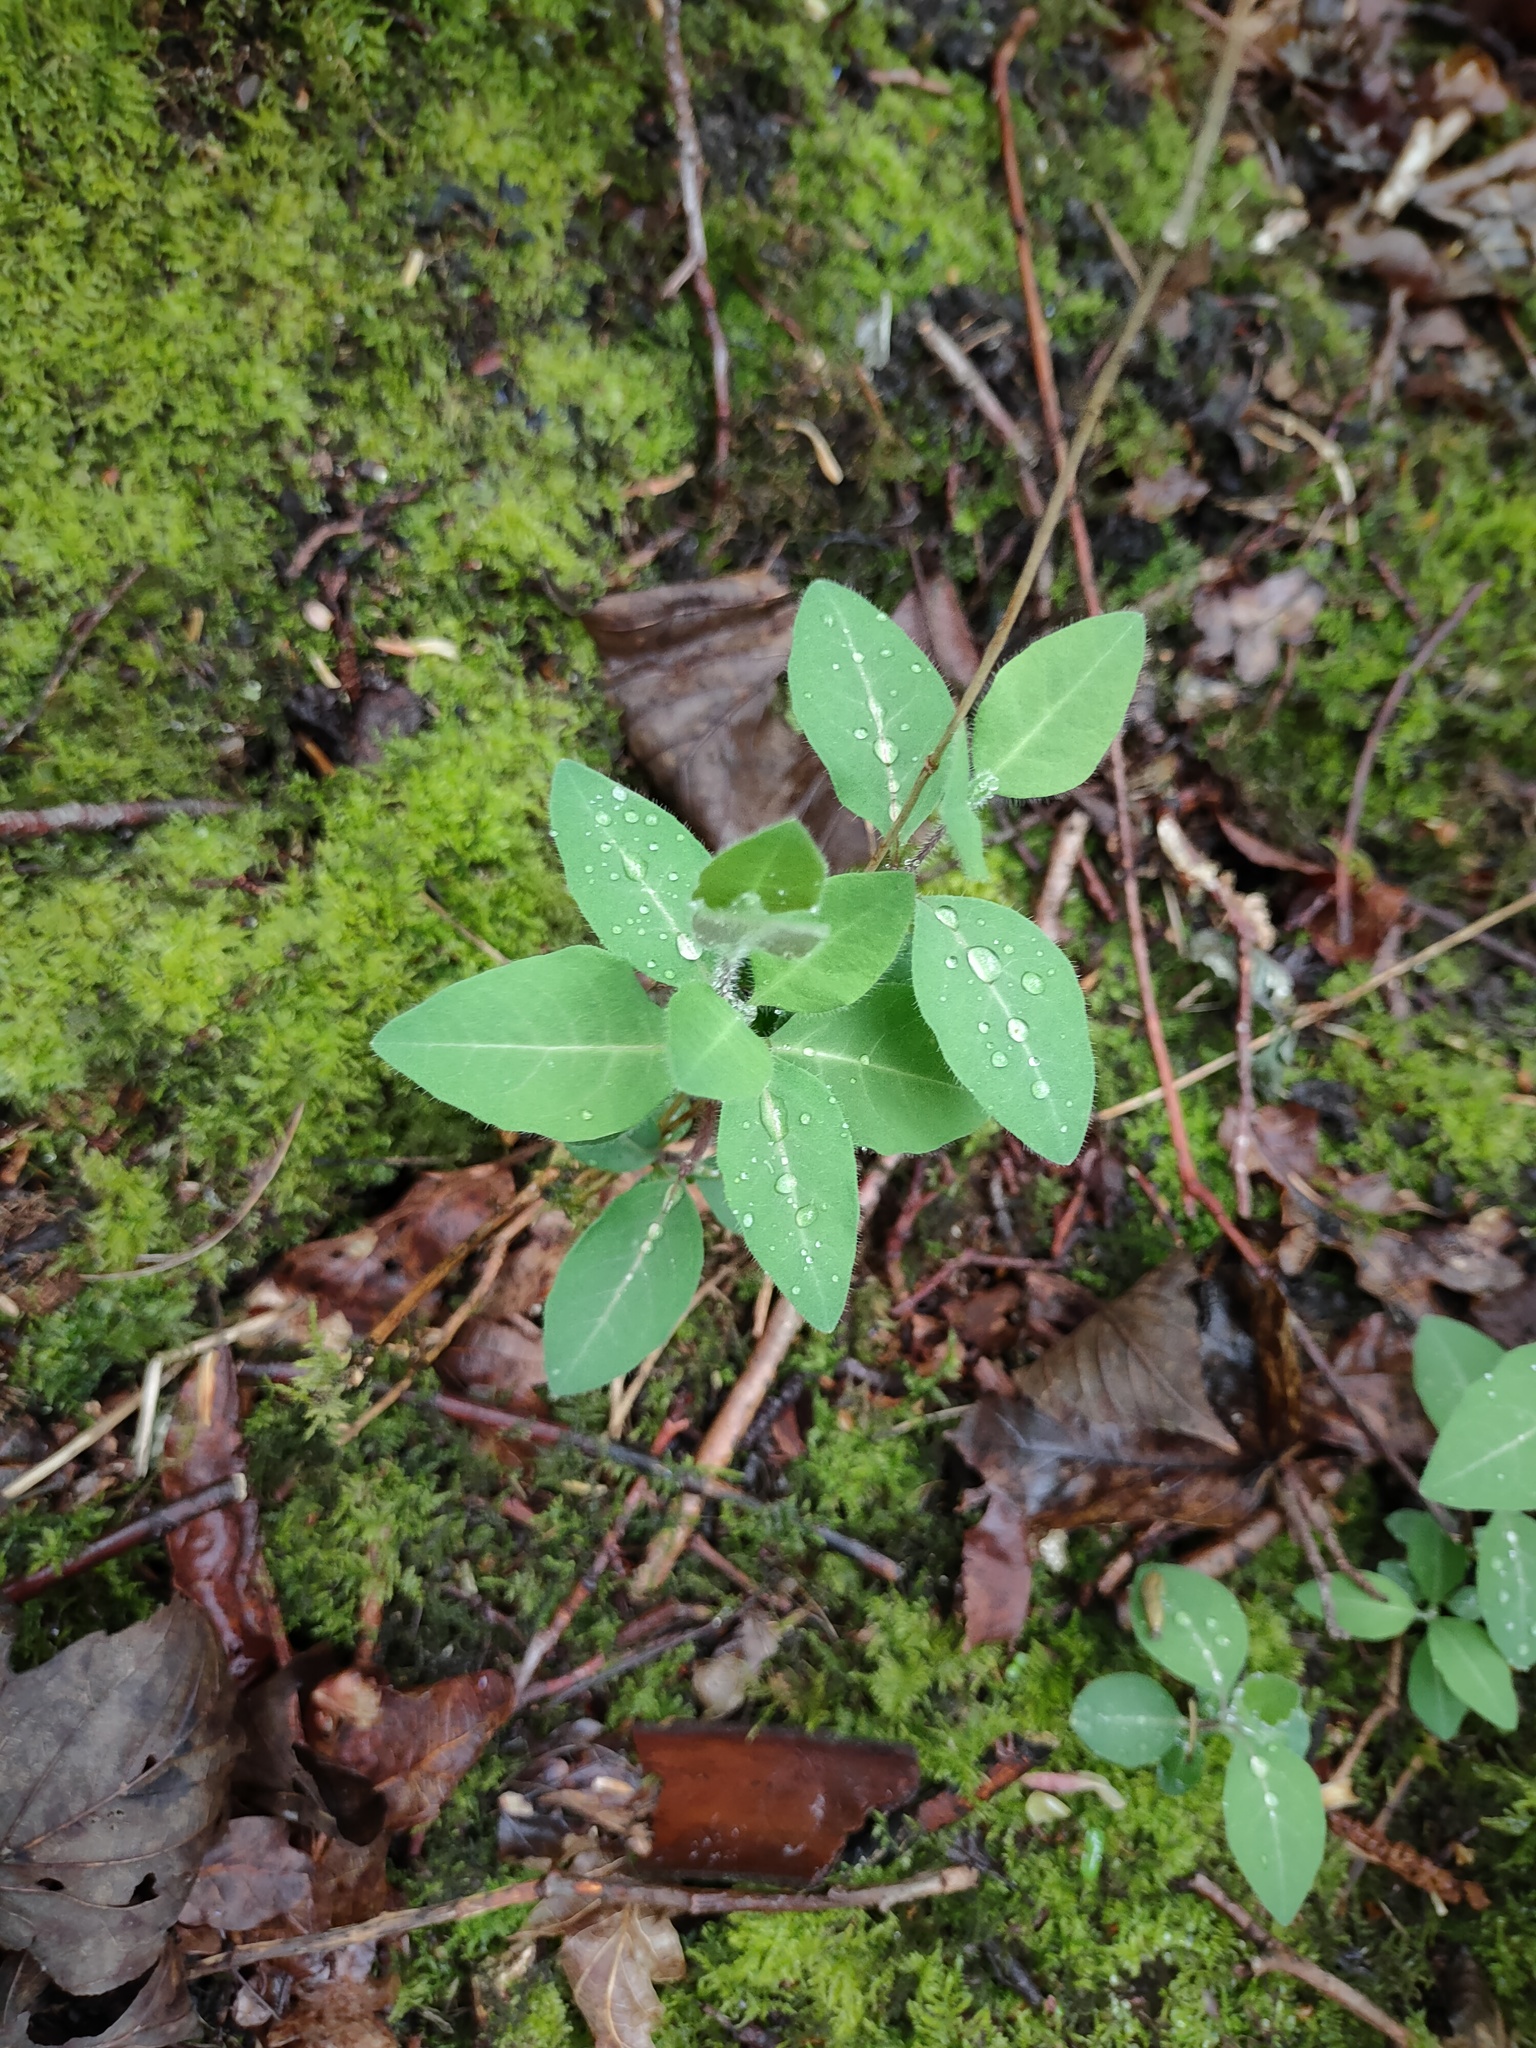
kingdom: Plantae
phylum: Tracheophyta
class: Magnoliopsida
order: Dipsacales
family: Caprifoliaceae
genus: Lonicera
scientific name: Lonicera periclymenum
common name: European honeysuckle
